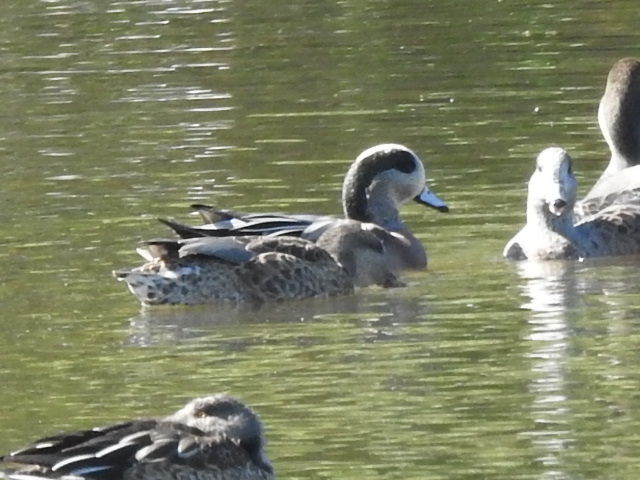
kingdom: Animalia
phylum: Chordata
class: Aves
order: Anseriformes
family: Anatidae
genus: Mareca
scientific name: Mareca americana
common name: American wigeon
